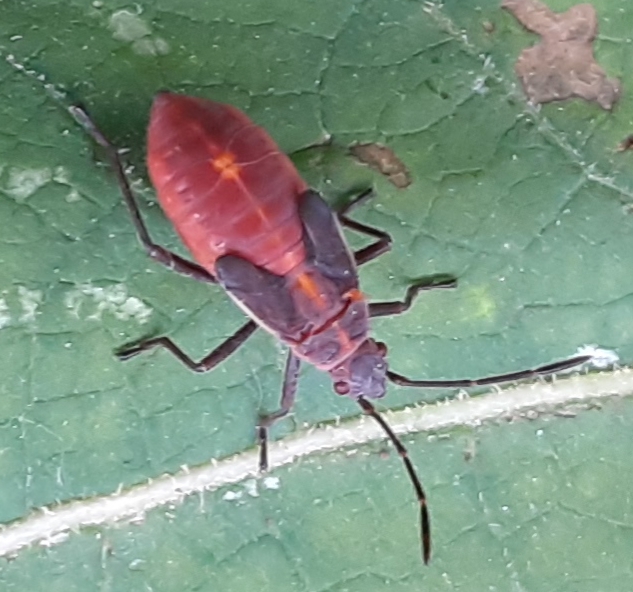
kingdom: Animalia
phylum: Arthropoda
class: Insecta
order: Hemiptera
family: Rhopalidae
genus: Boisea
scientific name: Boisea trivittata
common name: Boxelder bug
